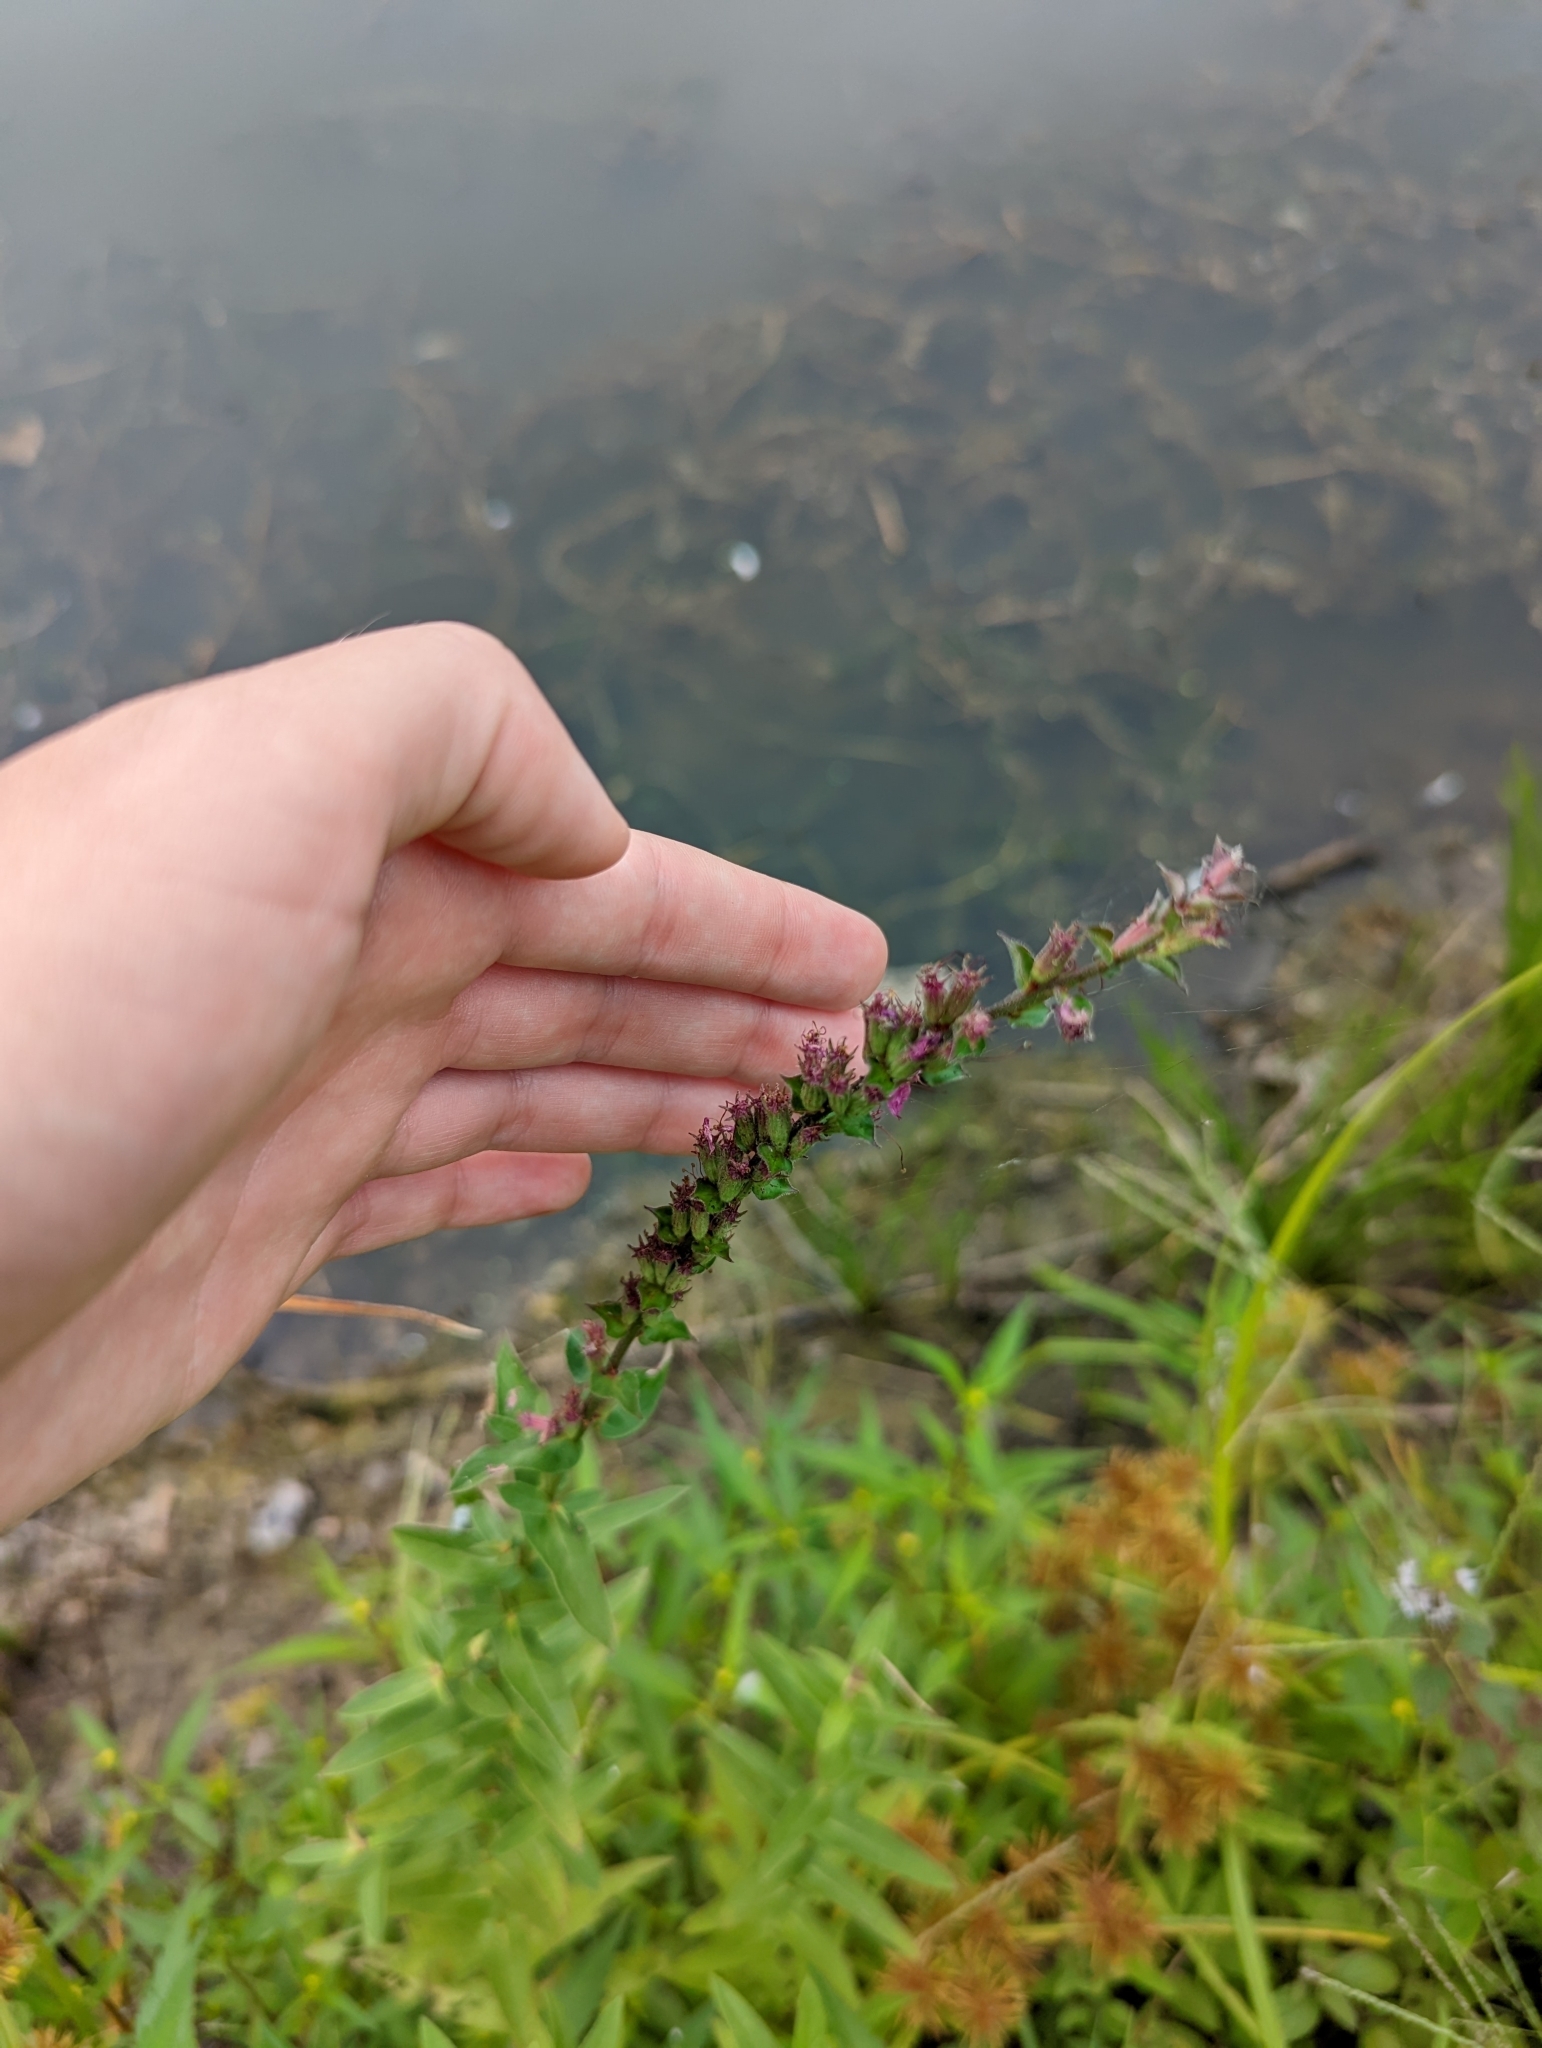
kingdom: Plantae
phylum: Tracheophyta
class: Magnoliopsida
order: Myrtales
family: Lythraceae
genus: Lythrum
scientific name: Lythrum salicaria
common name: Purple loosestrife
